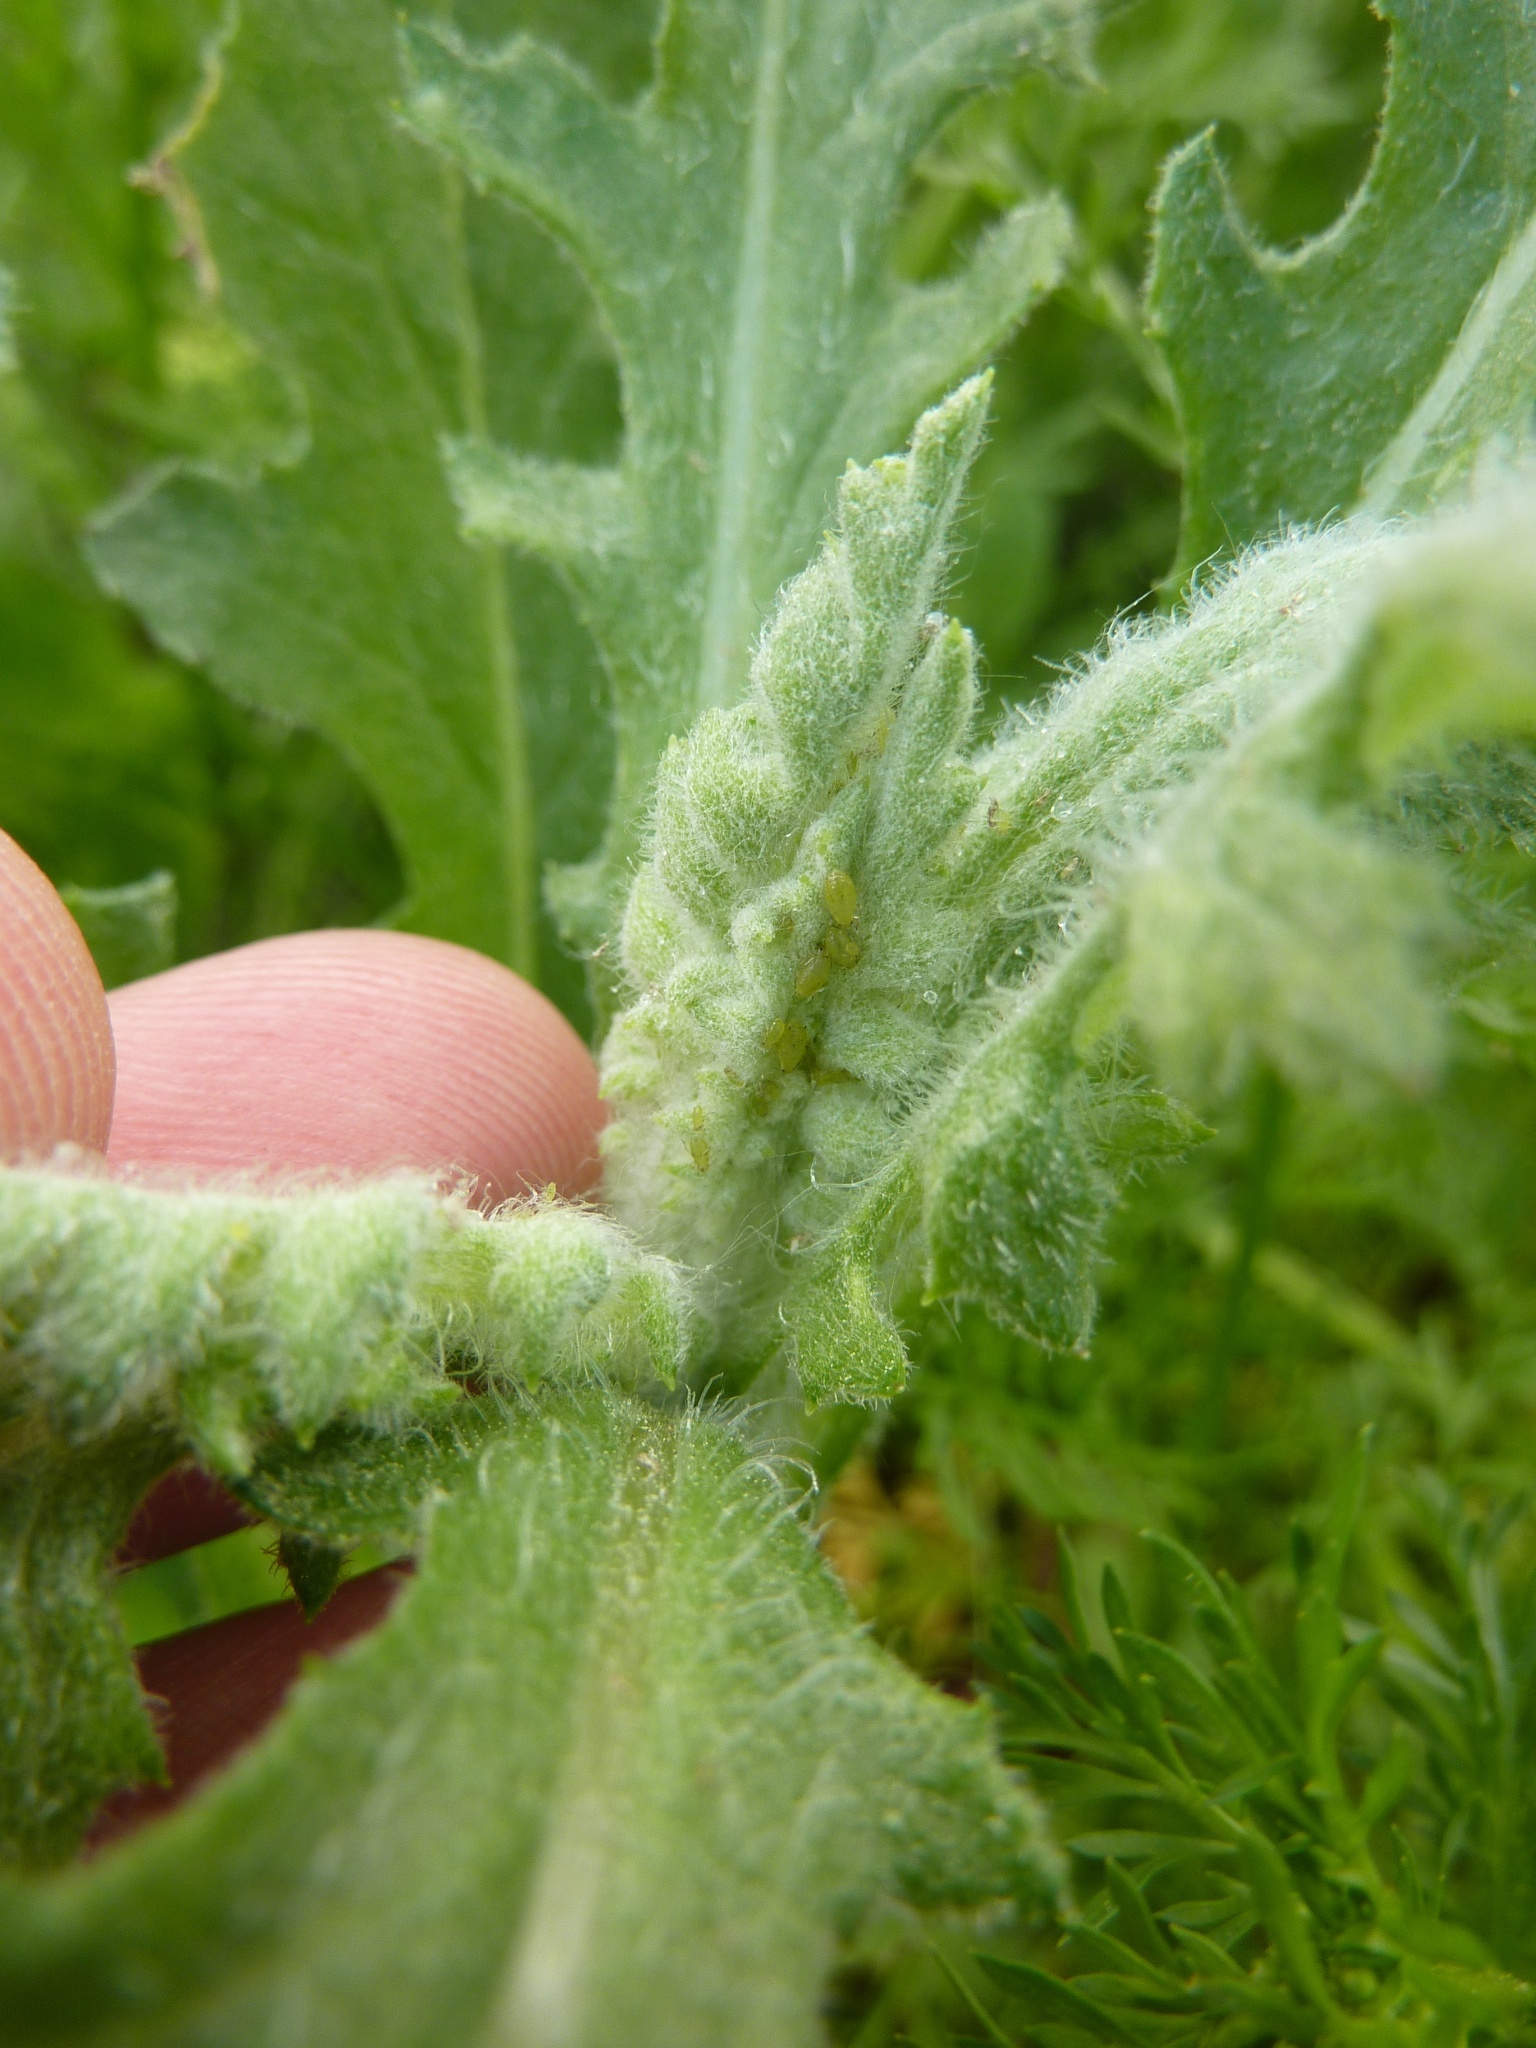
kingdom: Plantae
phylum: Tracheophyta
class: Magnoliopsida
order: Asterales
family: Asteraceae
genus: Senecio
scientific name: Senecio glomeratus
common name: Cutleaf burnweed
